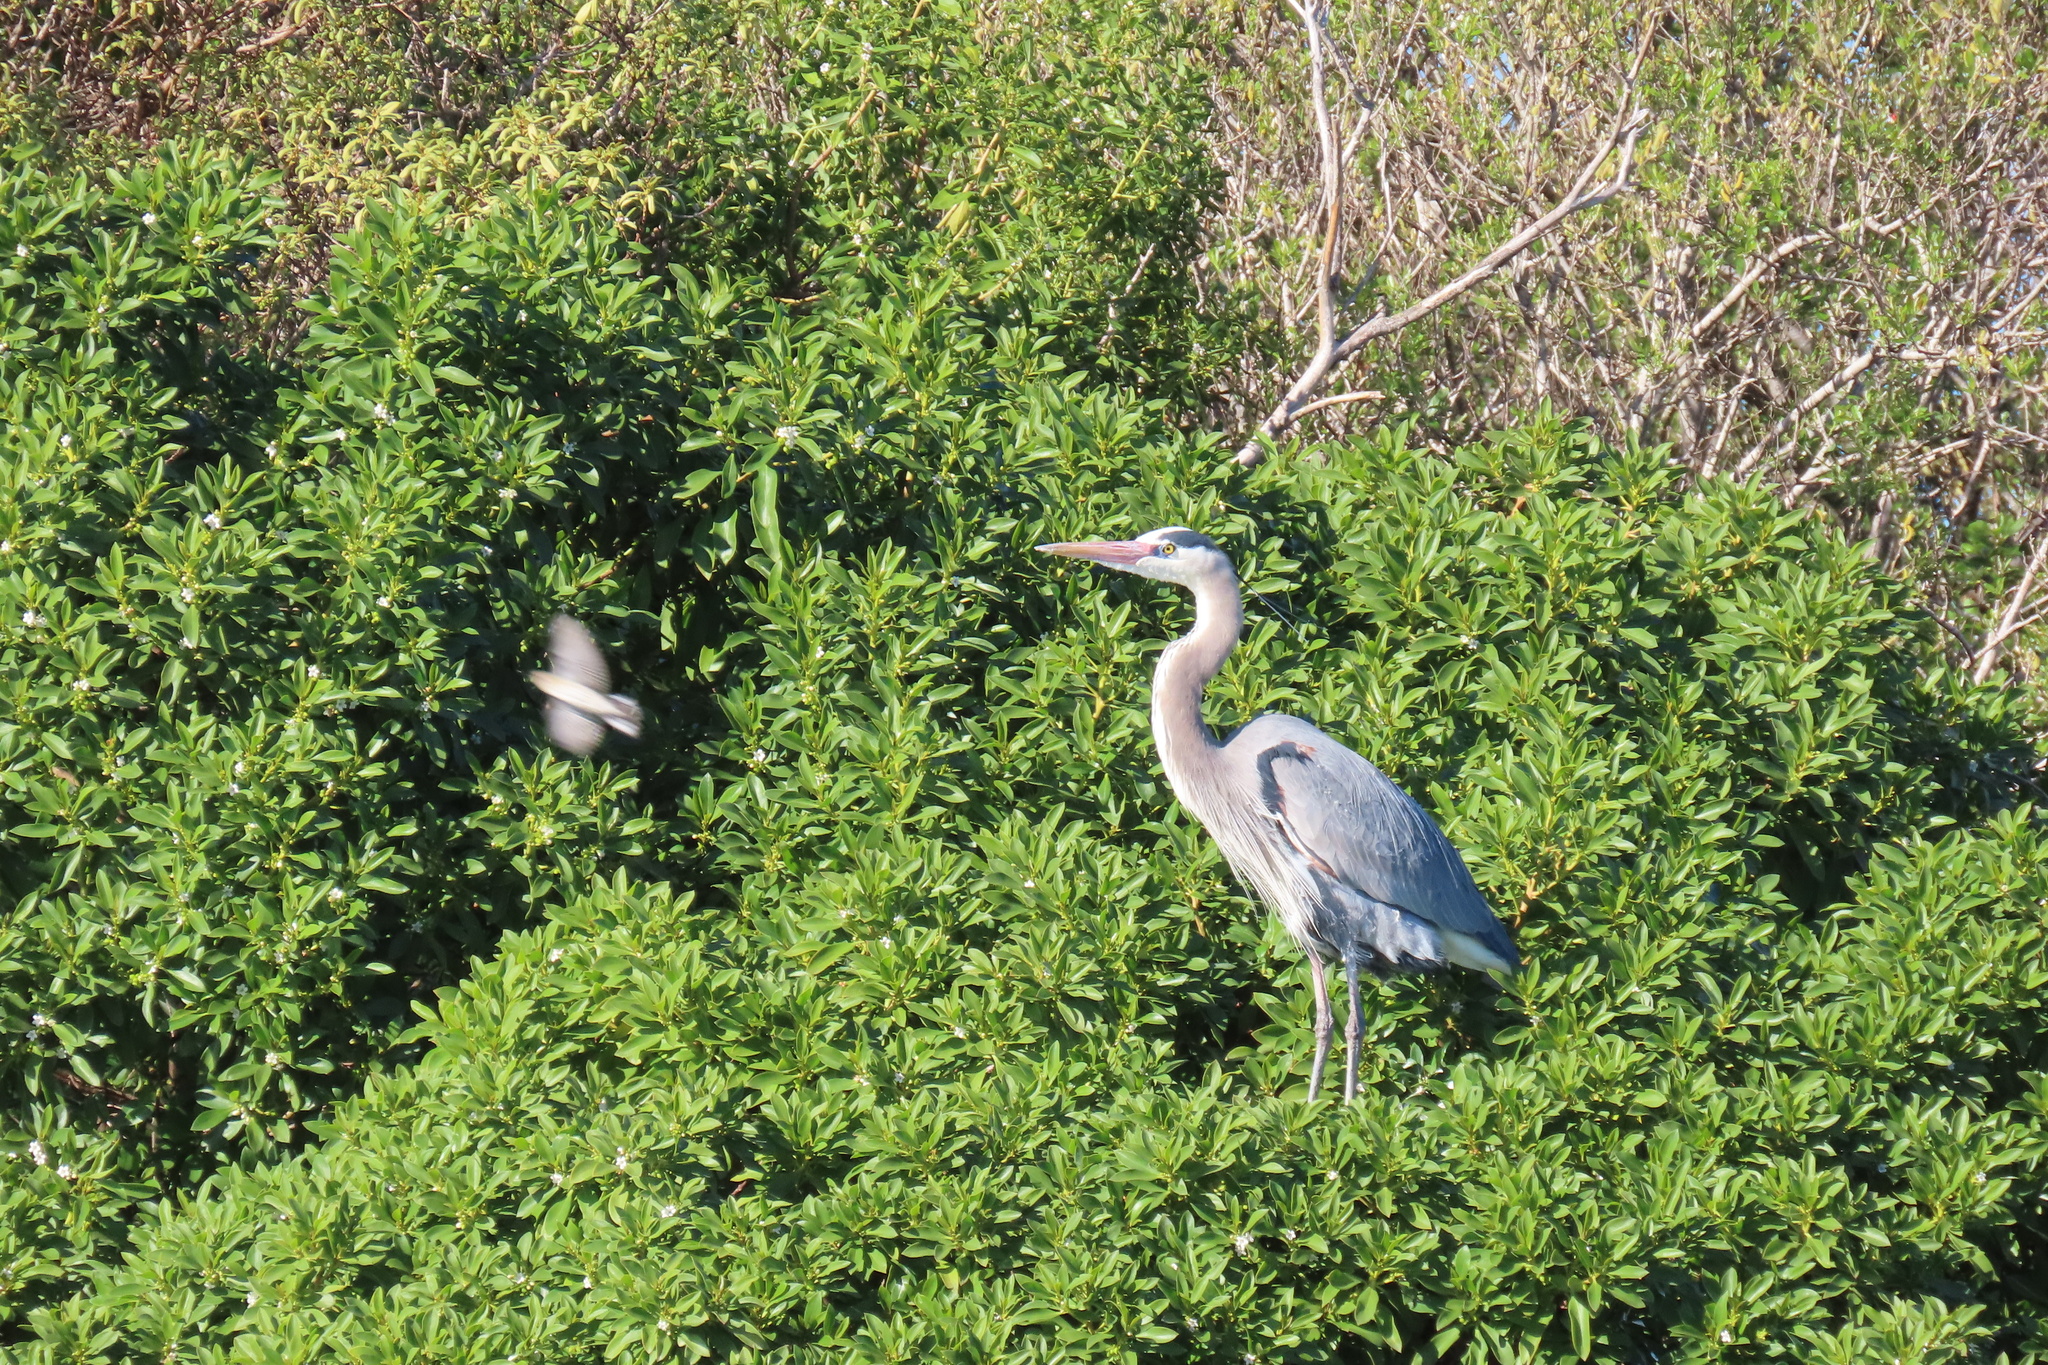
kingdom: Animalia
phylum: Chordata
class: Aves
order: Pelecaniformes
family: Ardeidae
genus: Ardea
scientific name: Ardea herodias
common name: Great blue heron
